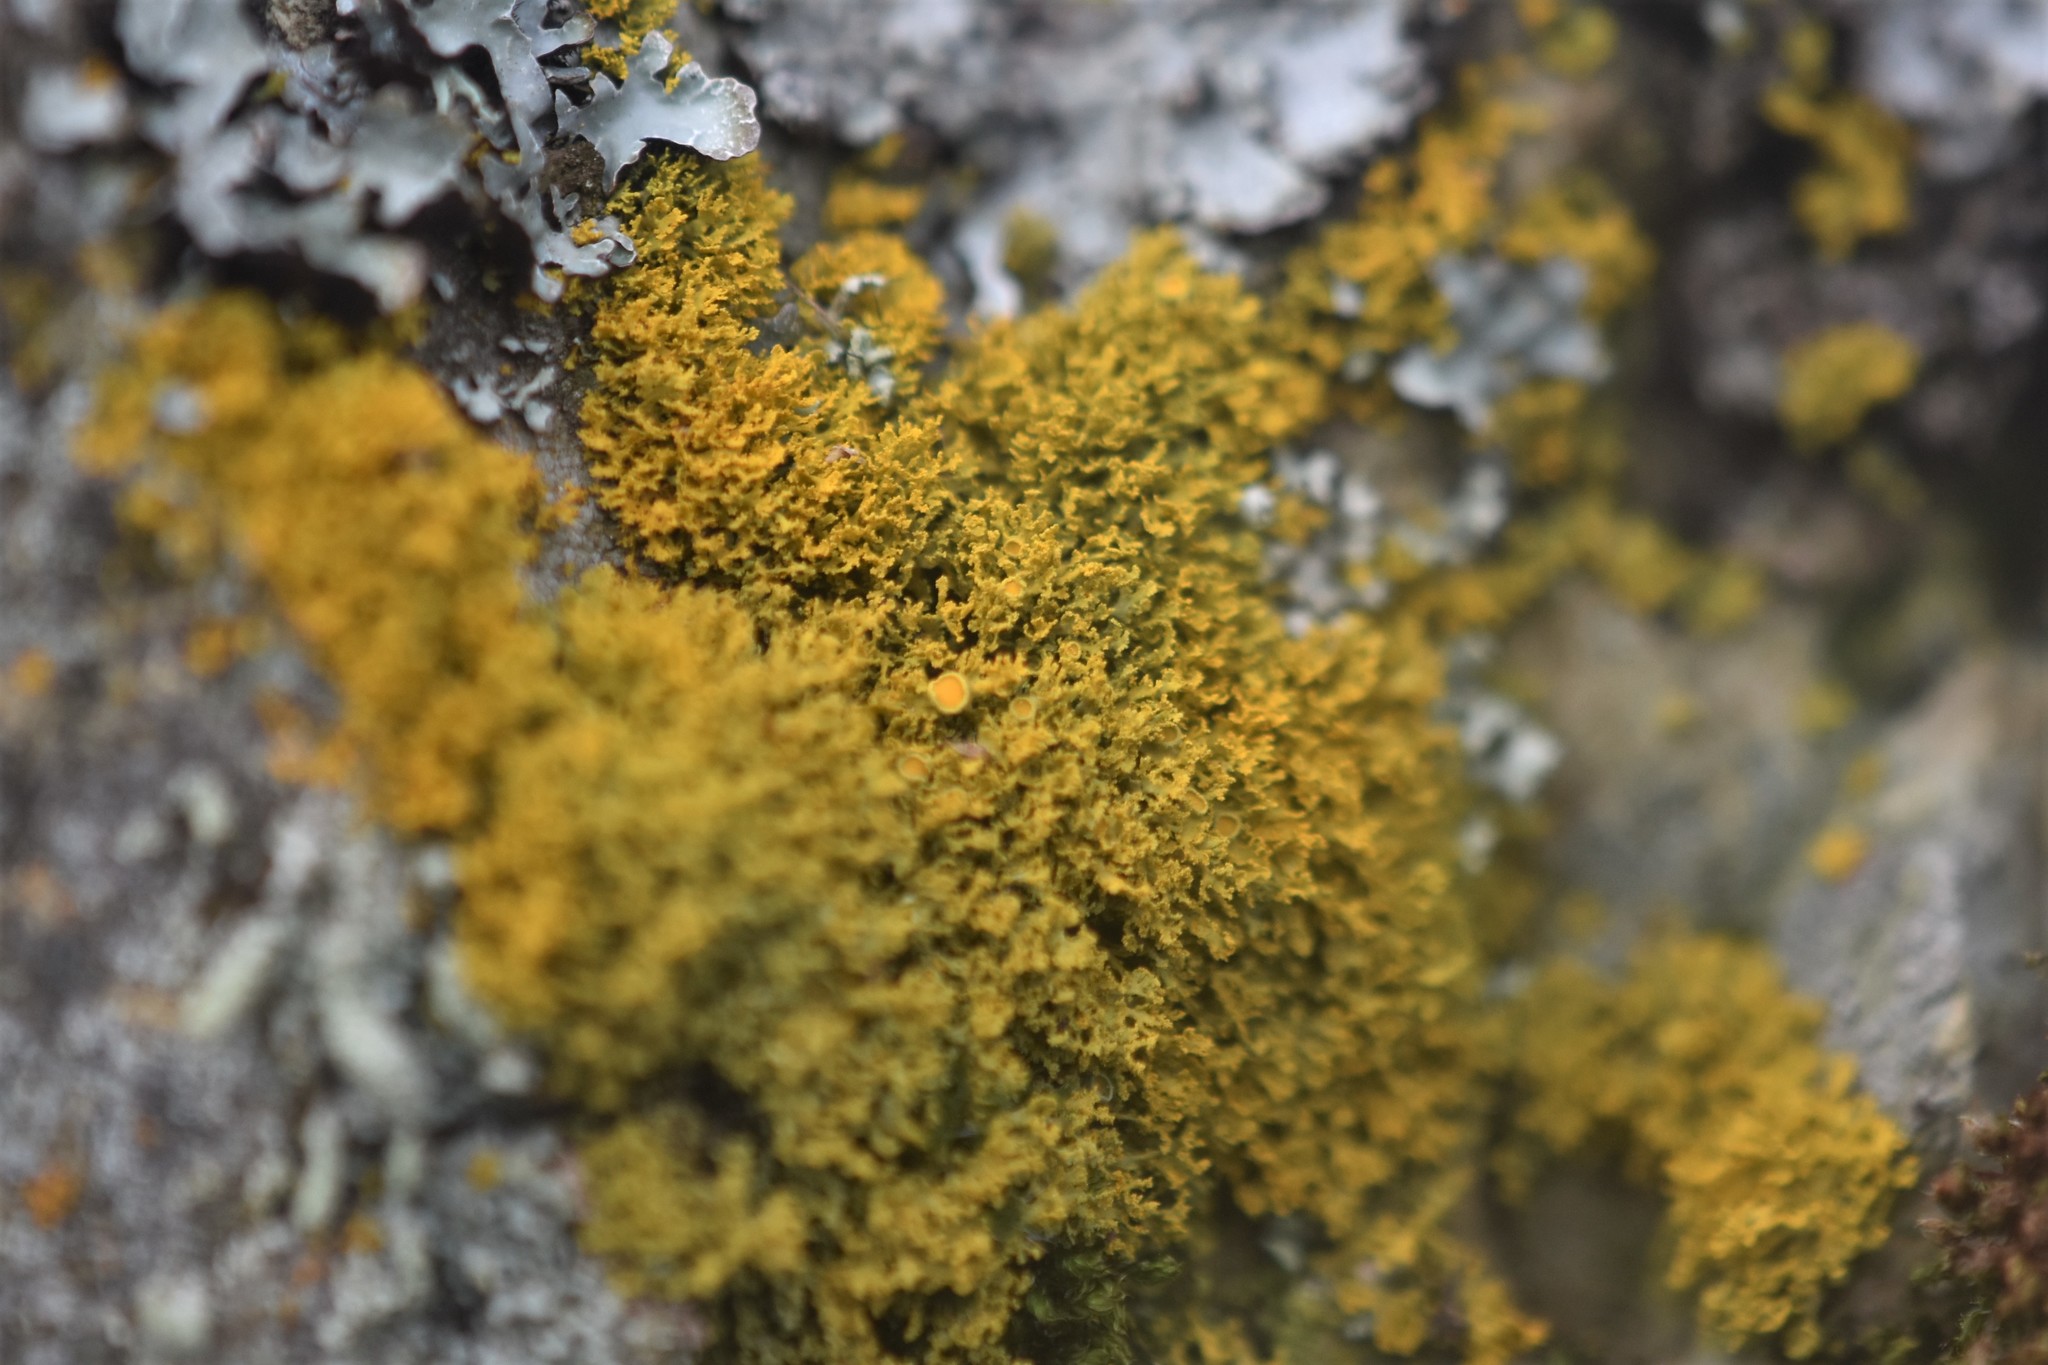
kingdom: Fungi
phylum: Ascomycota
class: Lecanoromycetes
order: Teloschistales
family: Teloschistaceae
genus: Polycauliona
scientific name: Polycauliona candelaria
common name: Shrubby sunburst lichen
